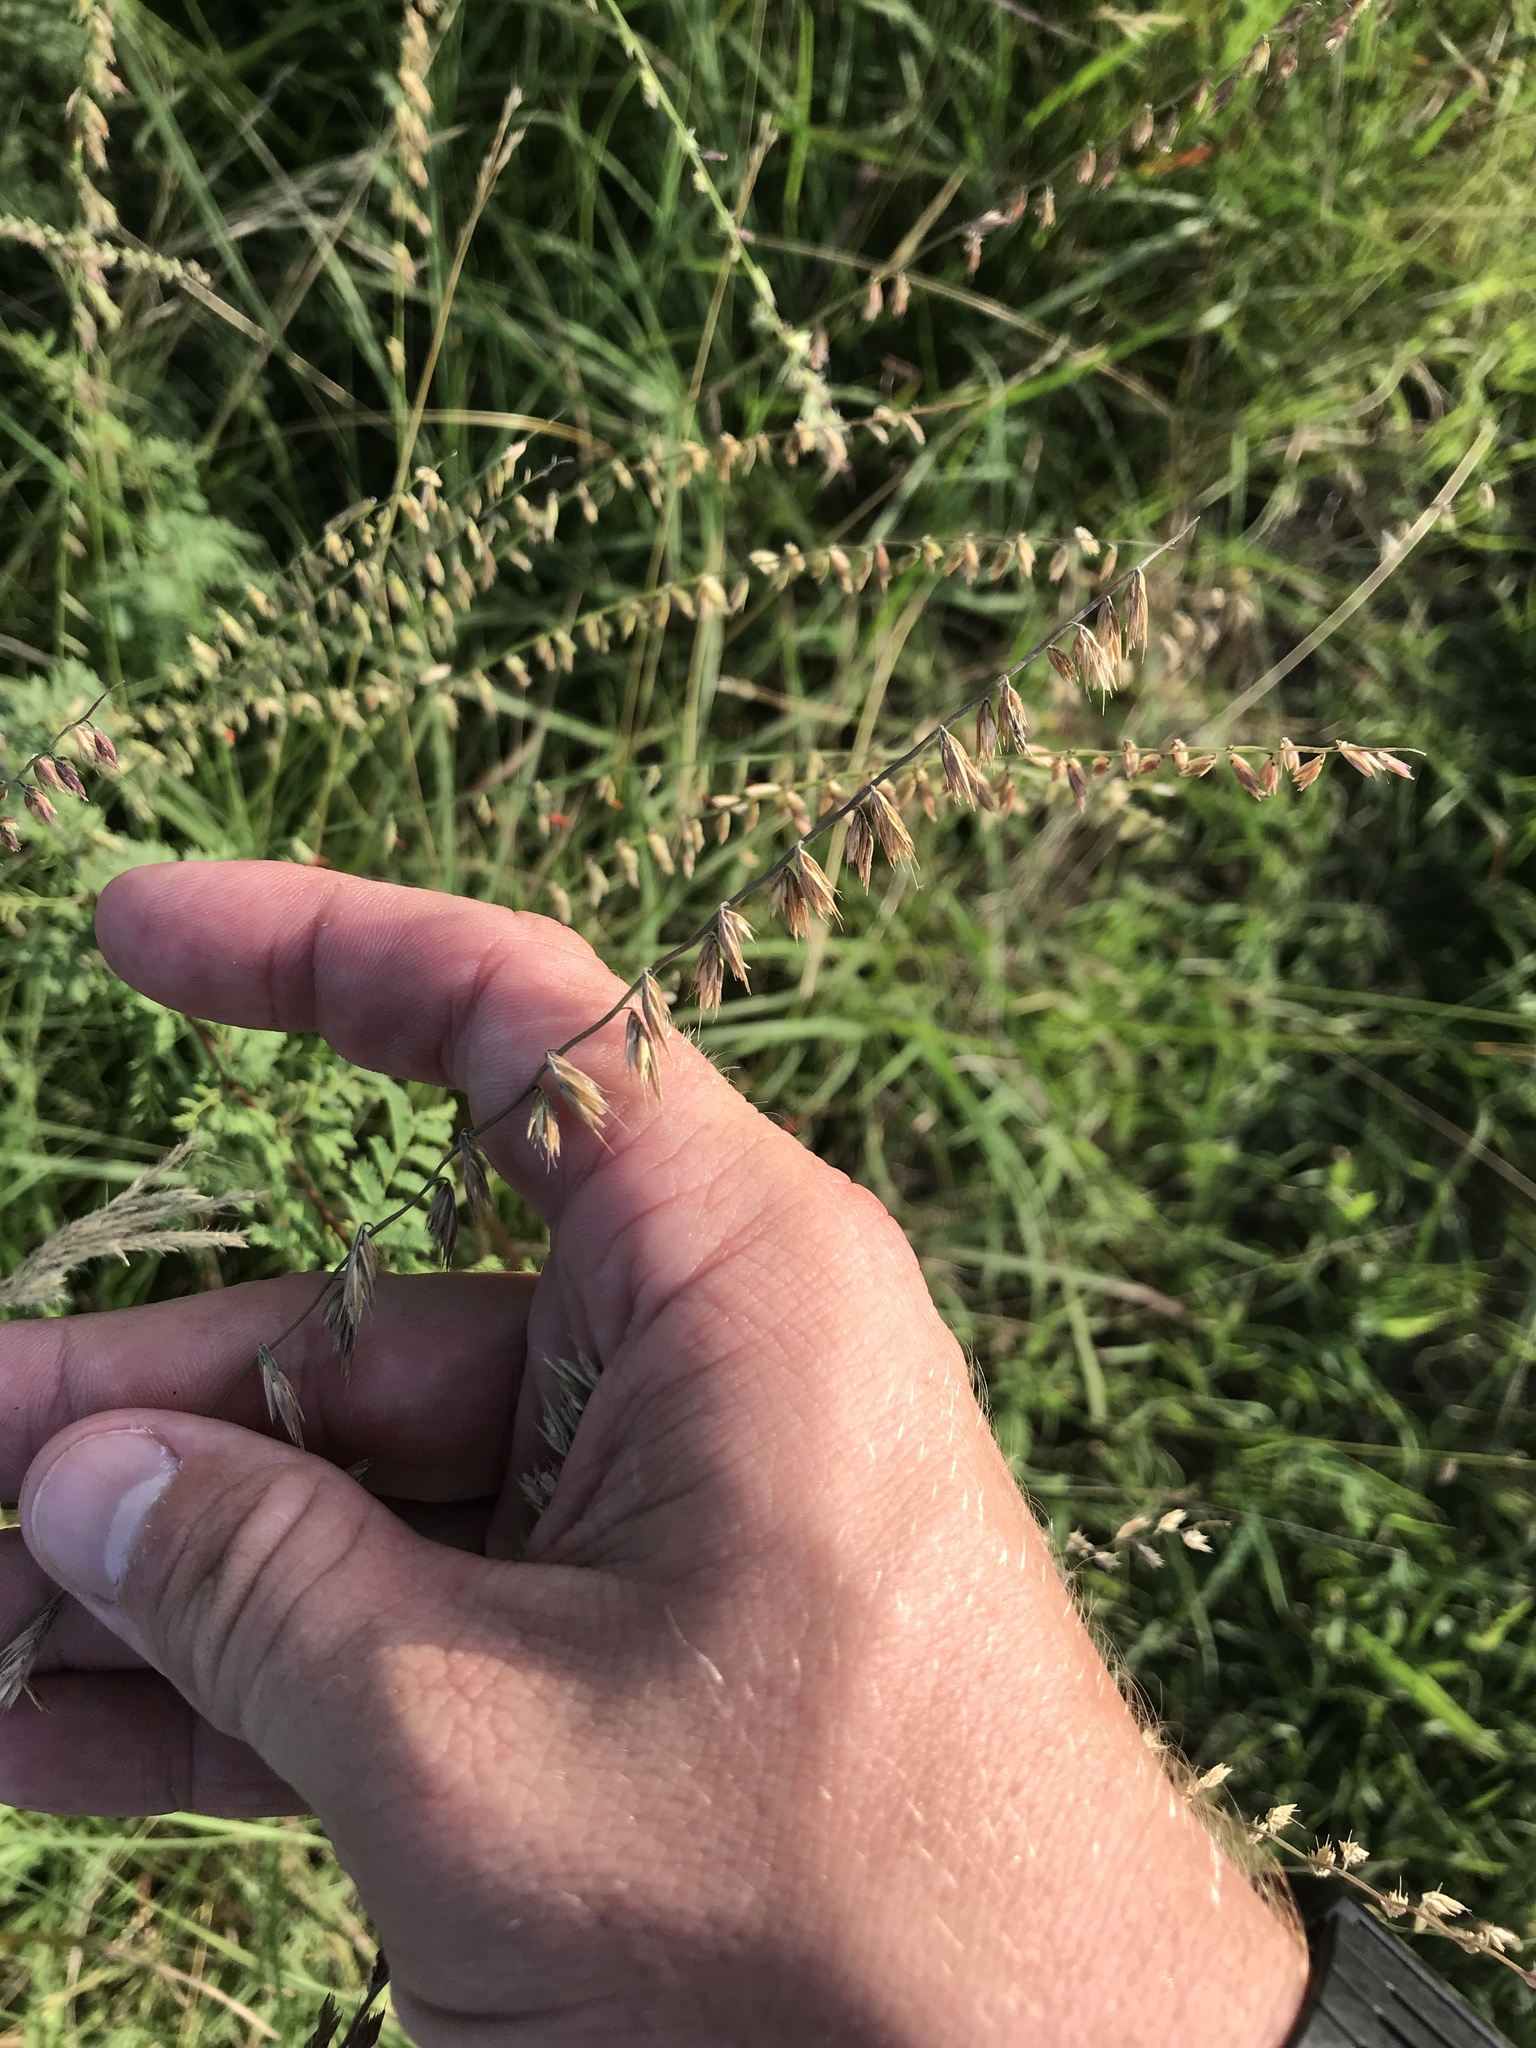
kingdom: Plantae
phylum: Tracheophyta
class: Liliopsida
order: Poales
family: Poaceae
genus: Bouteloua
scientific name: Bouteloua curtipendula
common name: Side-oats grama
